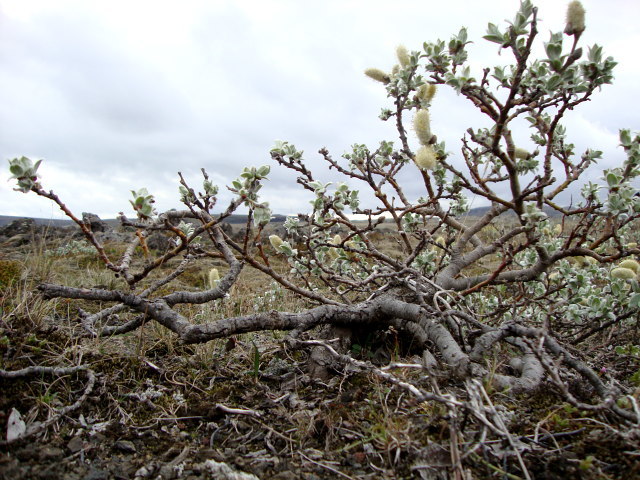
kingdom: Plantae
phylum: Tracheophyta
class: Magnoliopsida
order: Malpighiales
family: Salicaceae
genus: Salix
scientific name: Salix lanata
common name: Woolly willow
